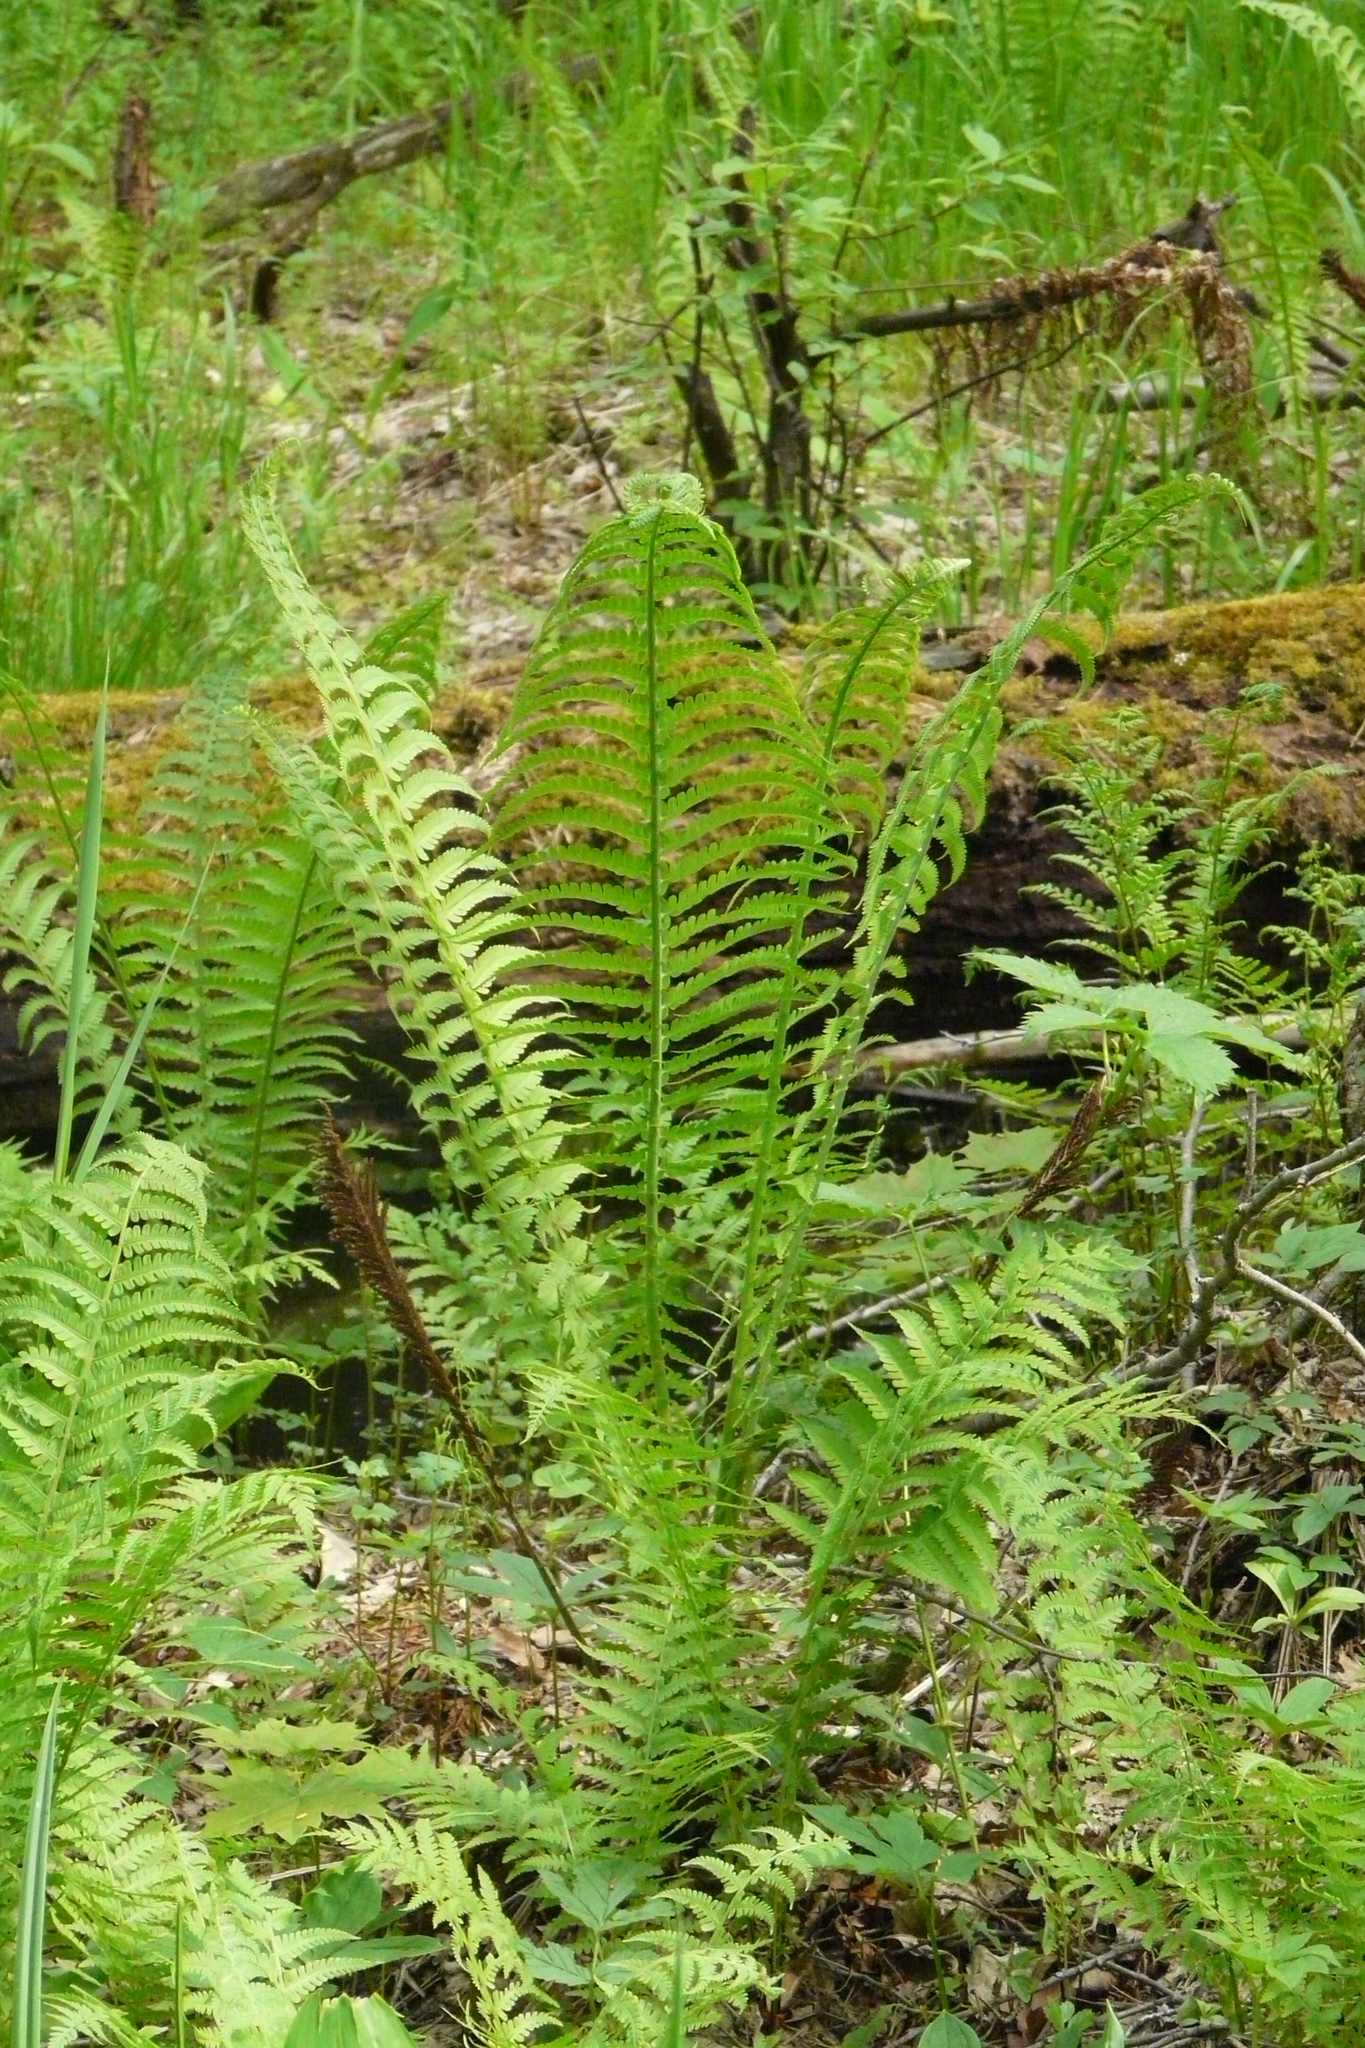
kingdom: Plantae
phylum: Tracheophyta
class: Polypodiopsida
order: Polypodiales
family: Onocleaceae
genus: Matteuccia
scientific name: Matteuccia struthiopteris
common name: Ostrich fern
